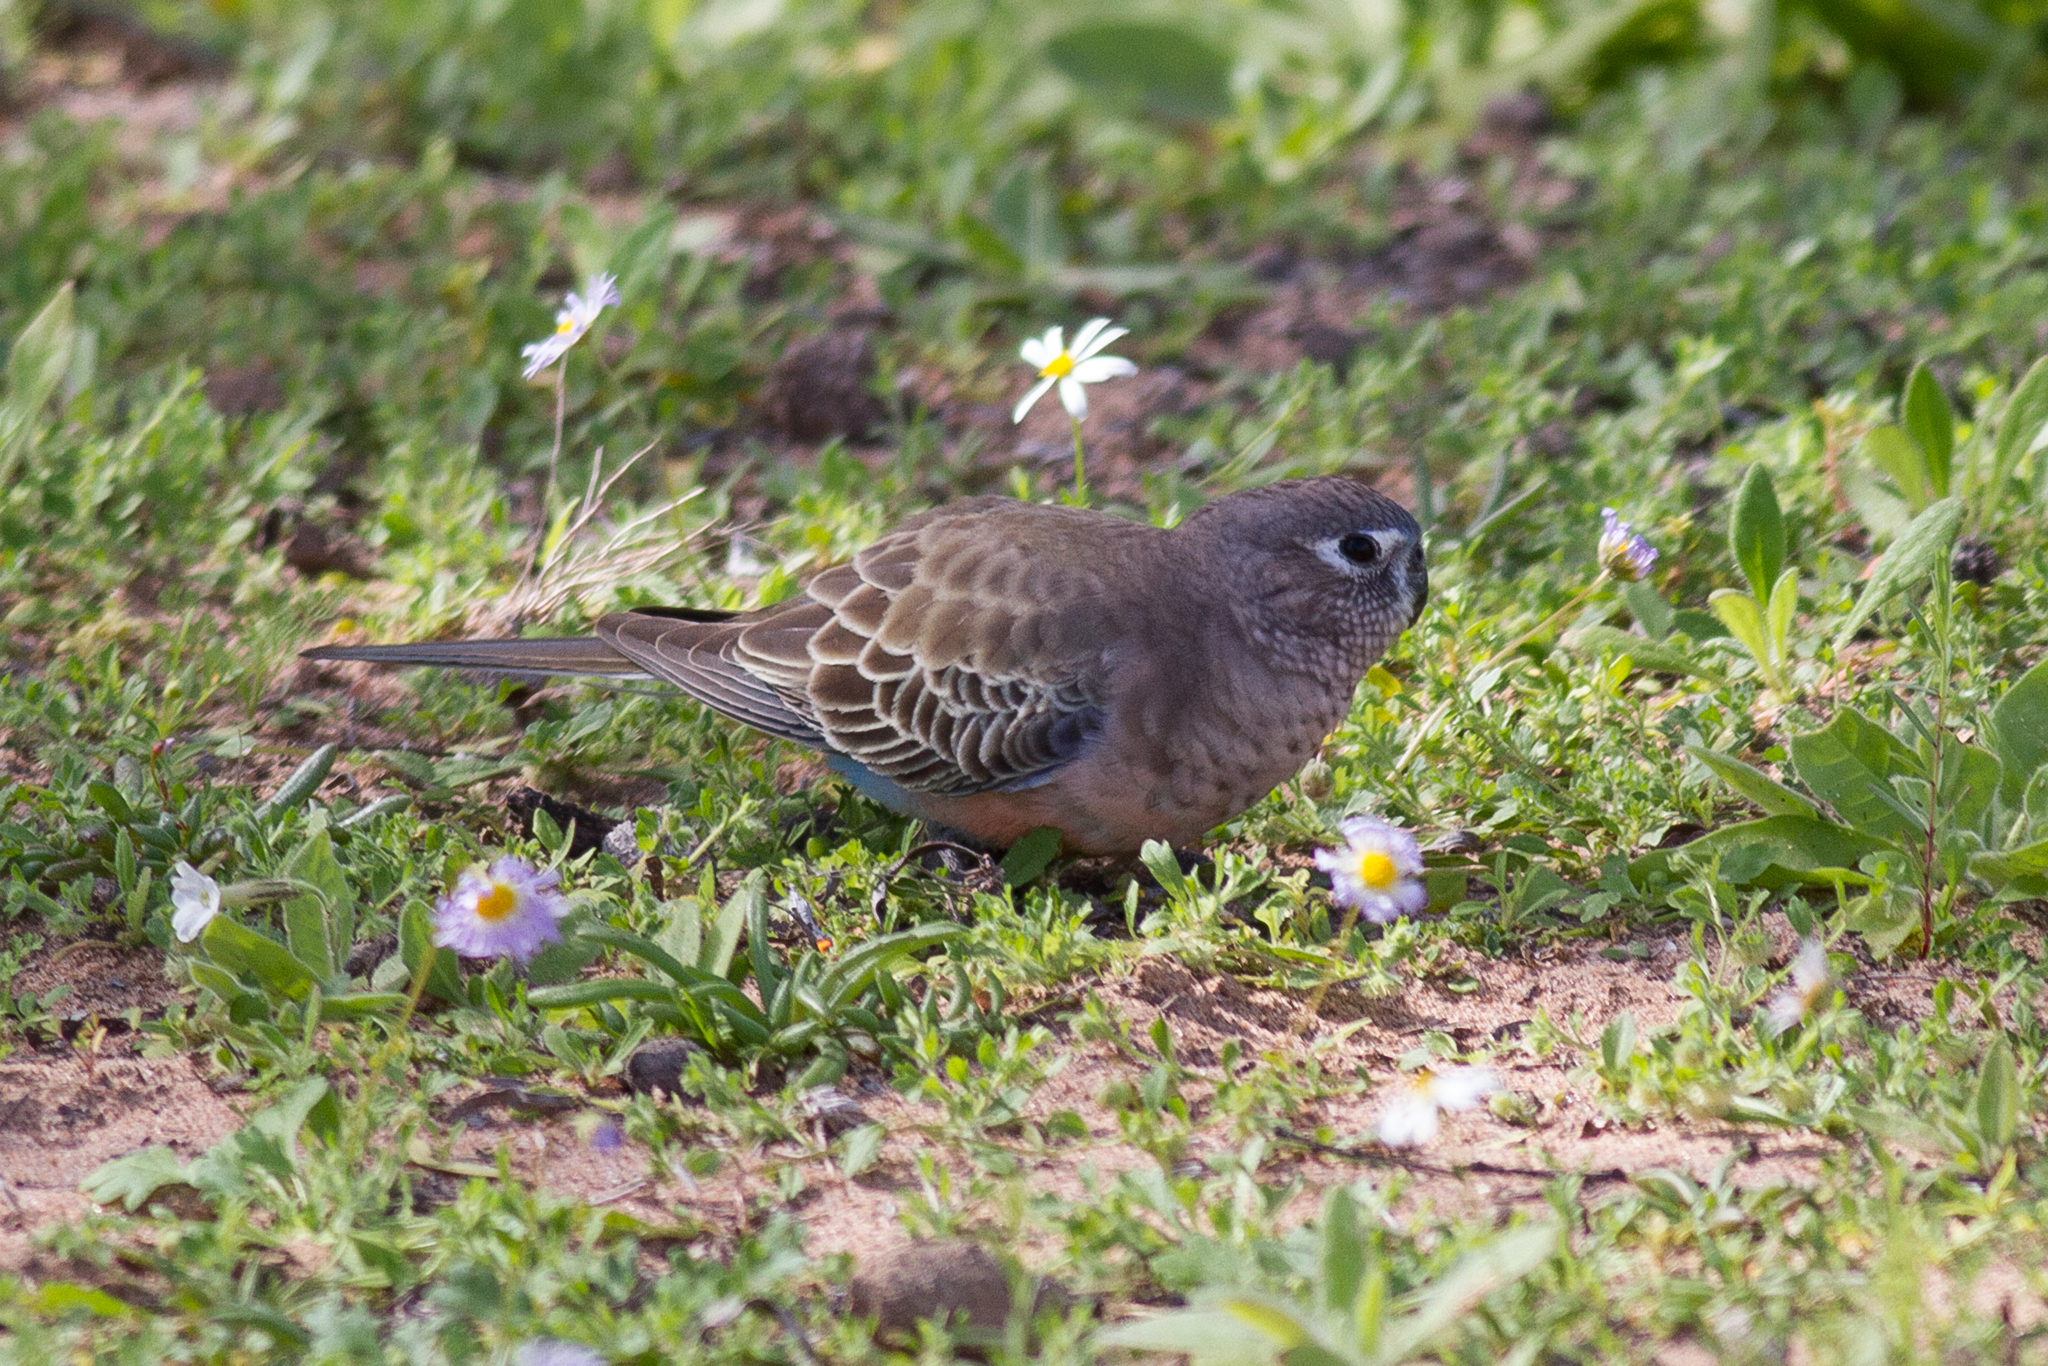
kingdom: Animalia
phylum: Chordata
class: Aves
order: Psittaciformes
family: Psittacidae
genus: Neopsephotus
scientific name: Neopsephotus bourkii
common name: Bourke's parrot
